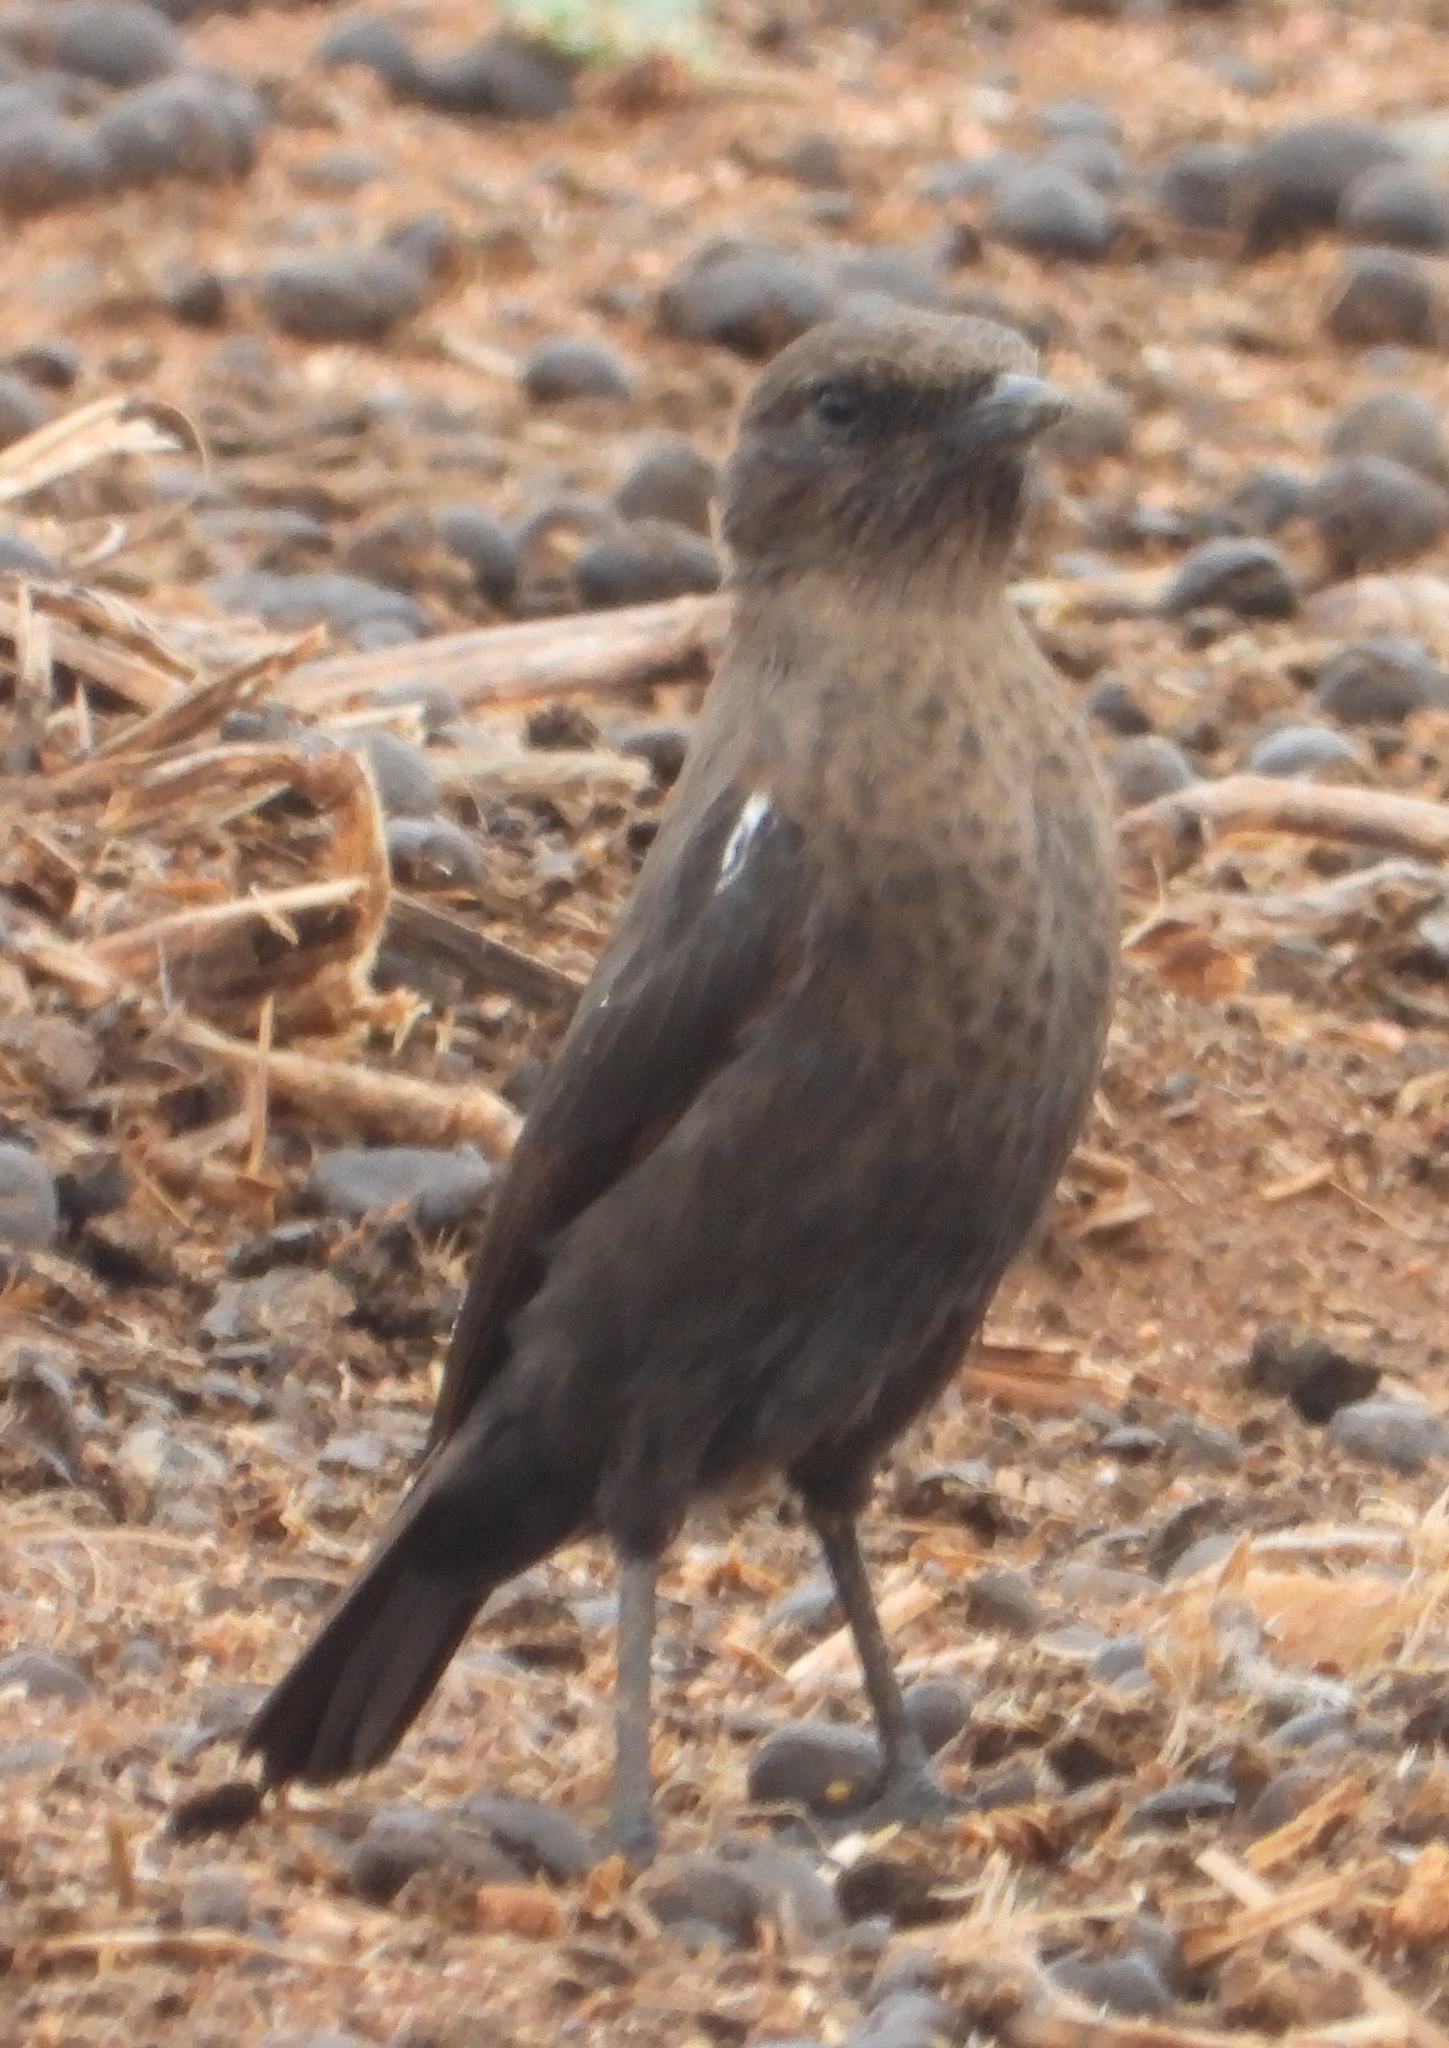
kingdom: Animalia
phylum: Chordata
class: Aves
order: Passeriformes
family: Muscicapidae
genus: Myrmecocichla
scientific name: Myrmecocichla formicivora
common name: Ant-eating chat
